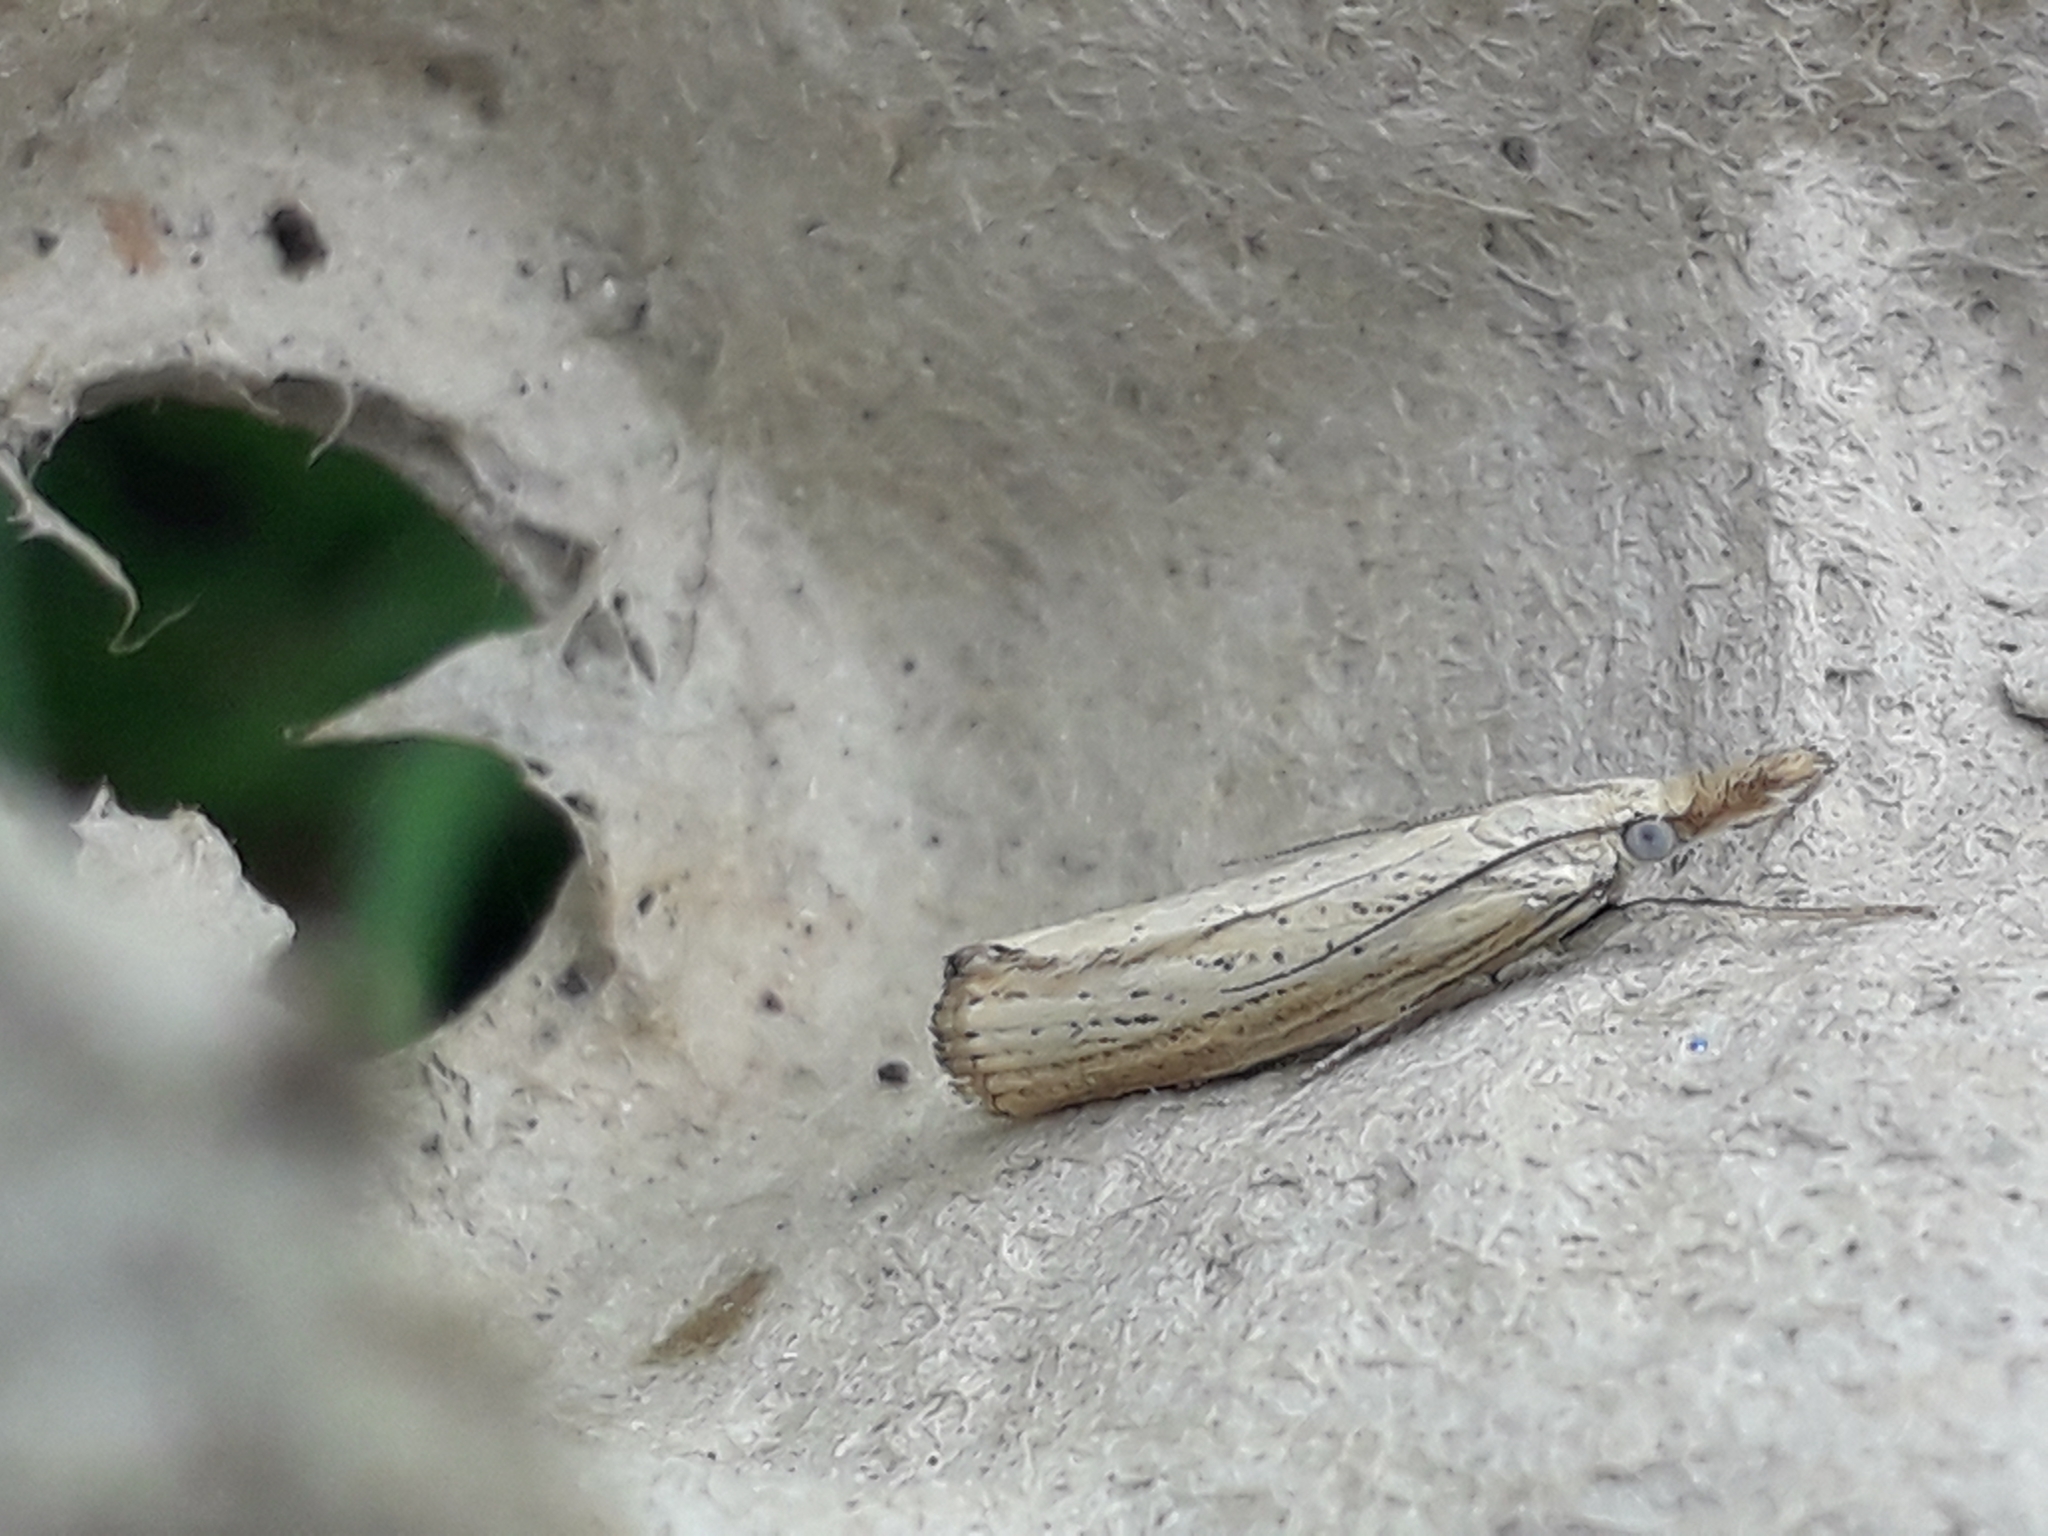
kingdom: Animalia
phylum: Arthropoda
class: Insecta
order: Lepidoptera
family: Crambidae
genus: Agriphila
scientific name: Agriphila straminella
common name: Straw grass-veneer
